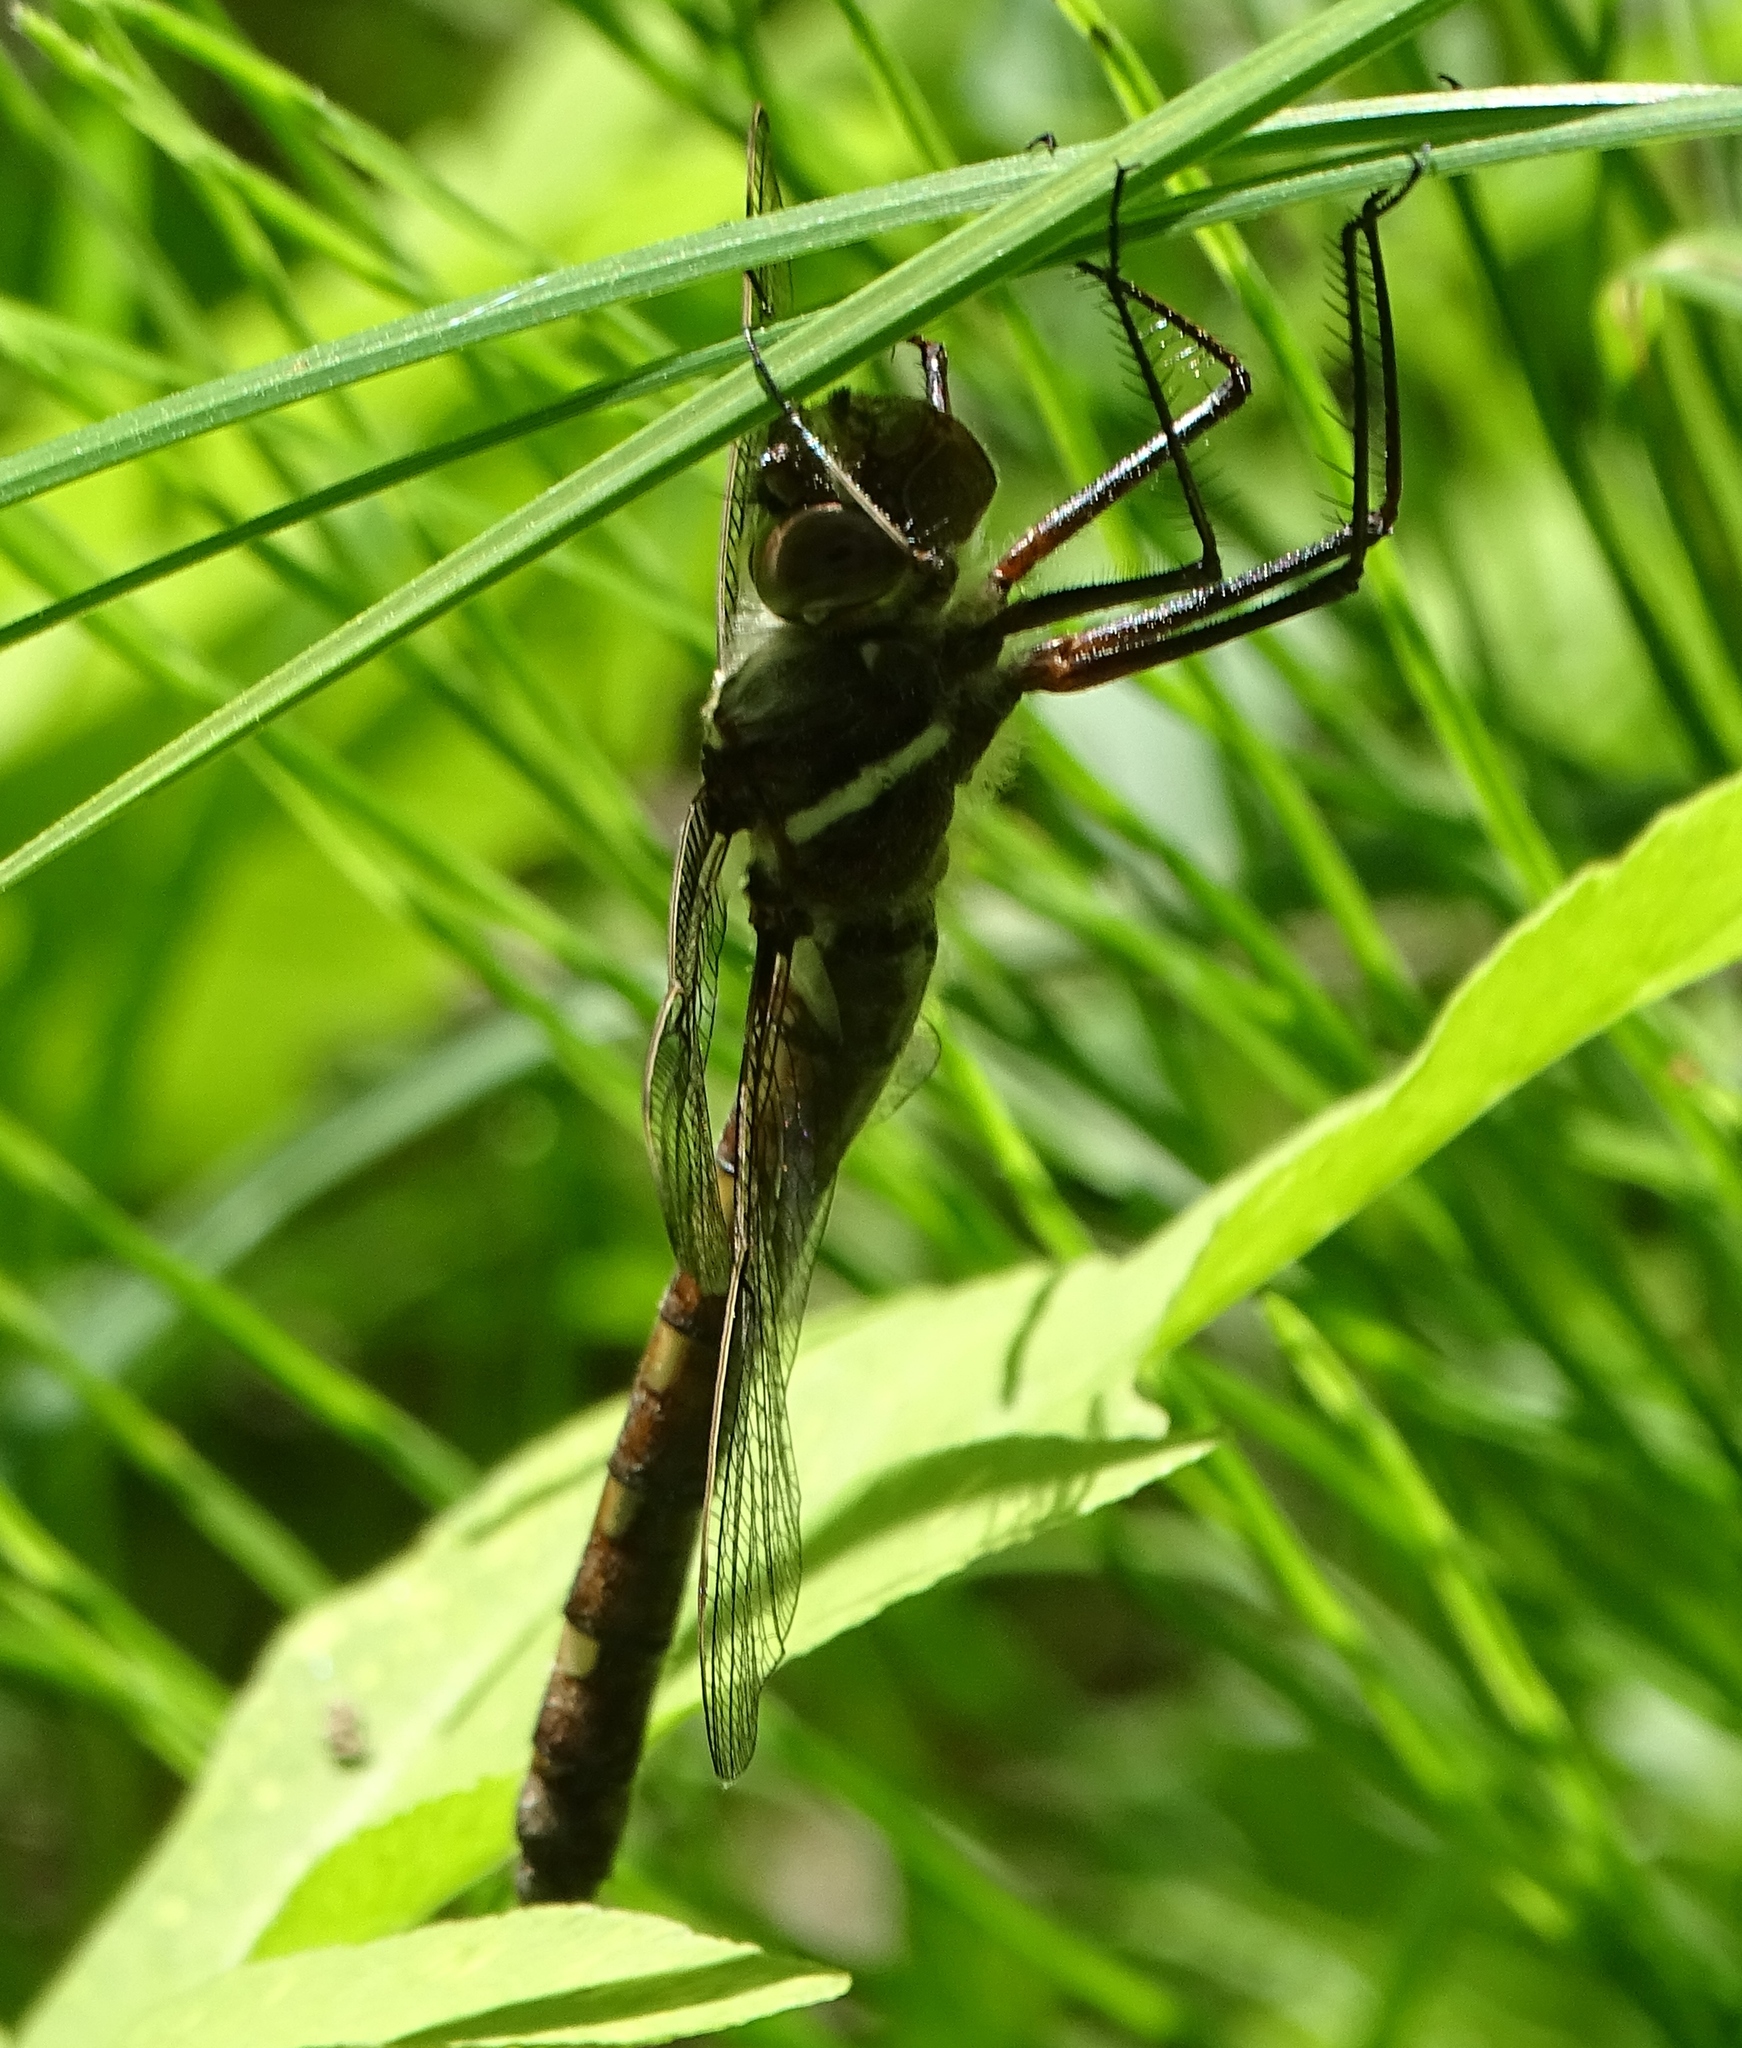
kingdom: Animalia
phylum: Arthropoda
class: Insecta
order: Odonata
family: Macromiidae
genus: Didymops
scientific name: Didymops transversa
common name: Stream cruiser
